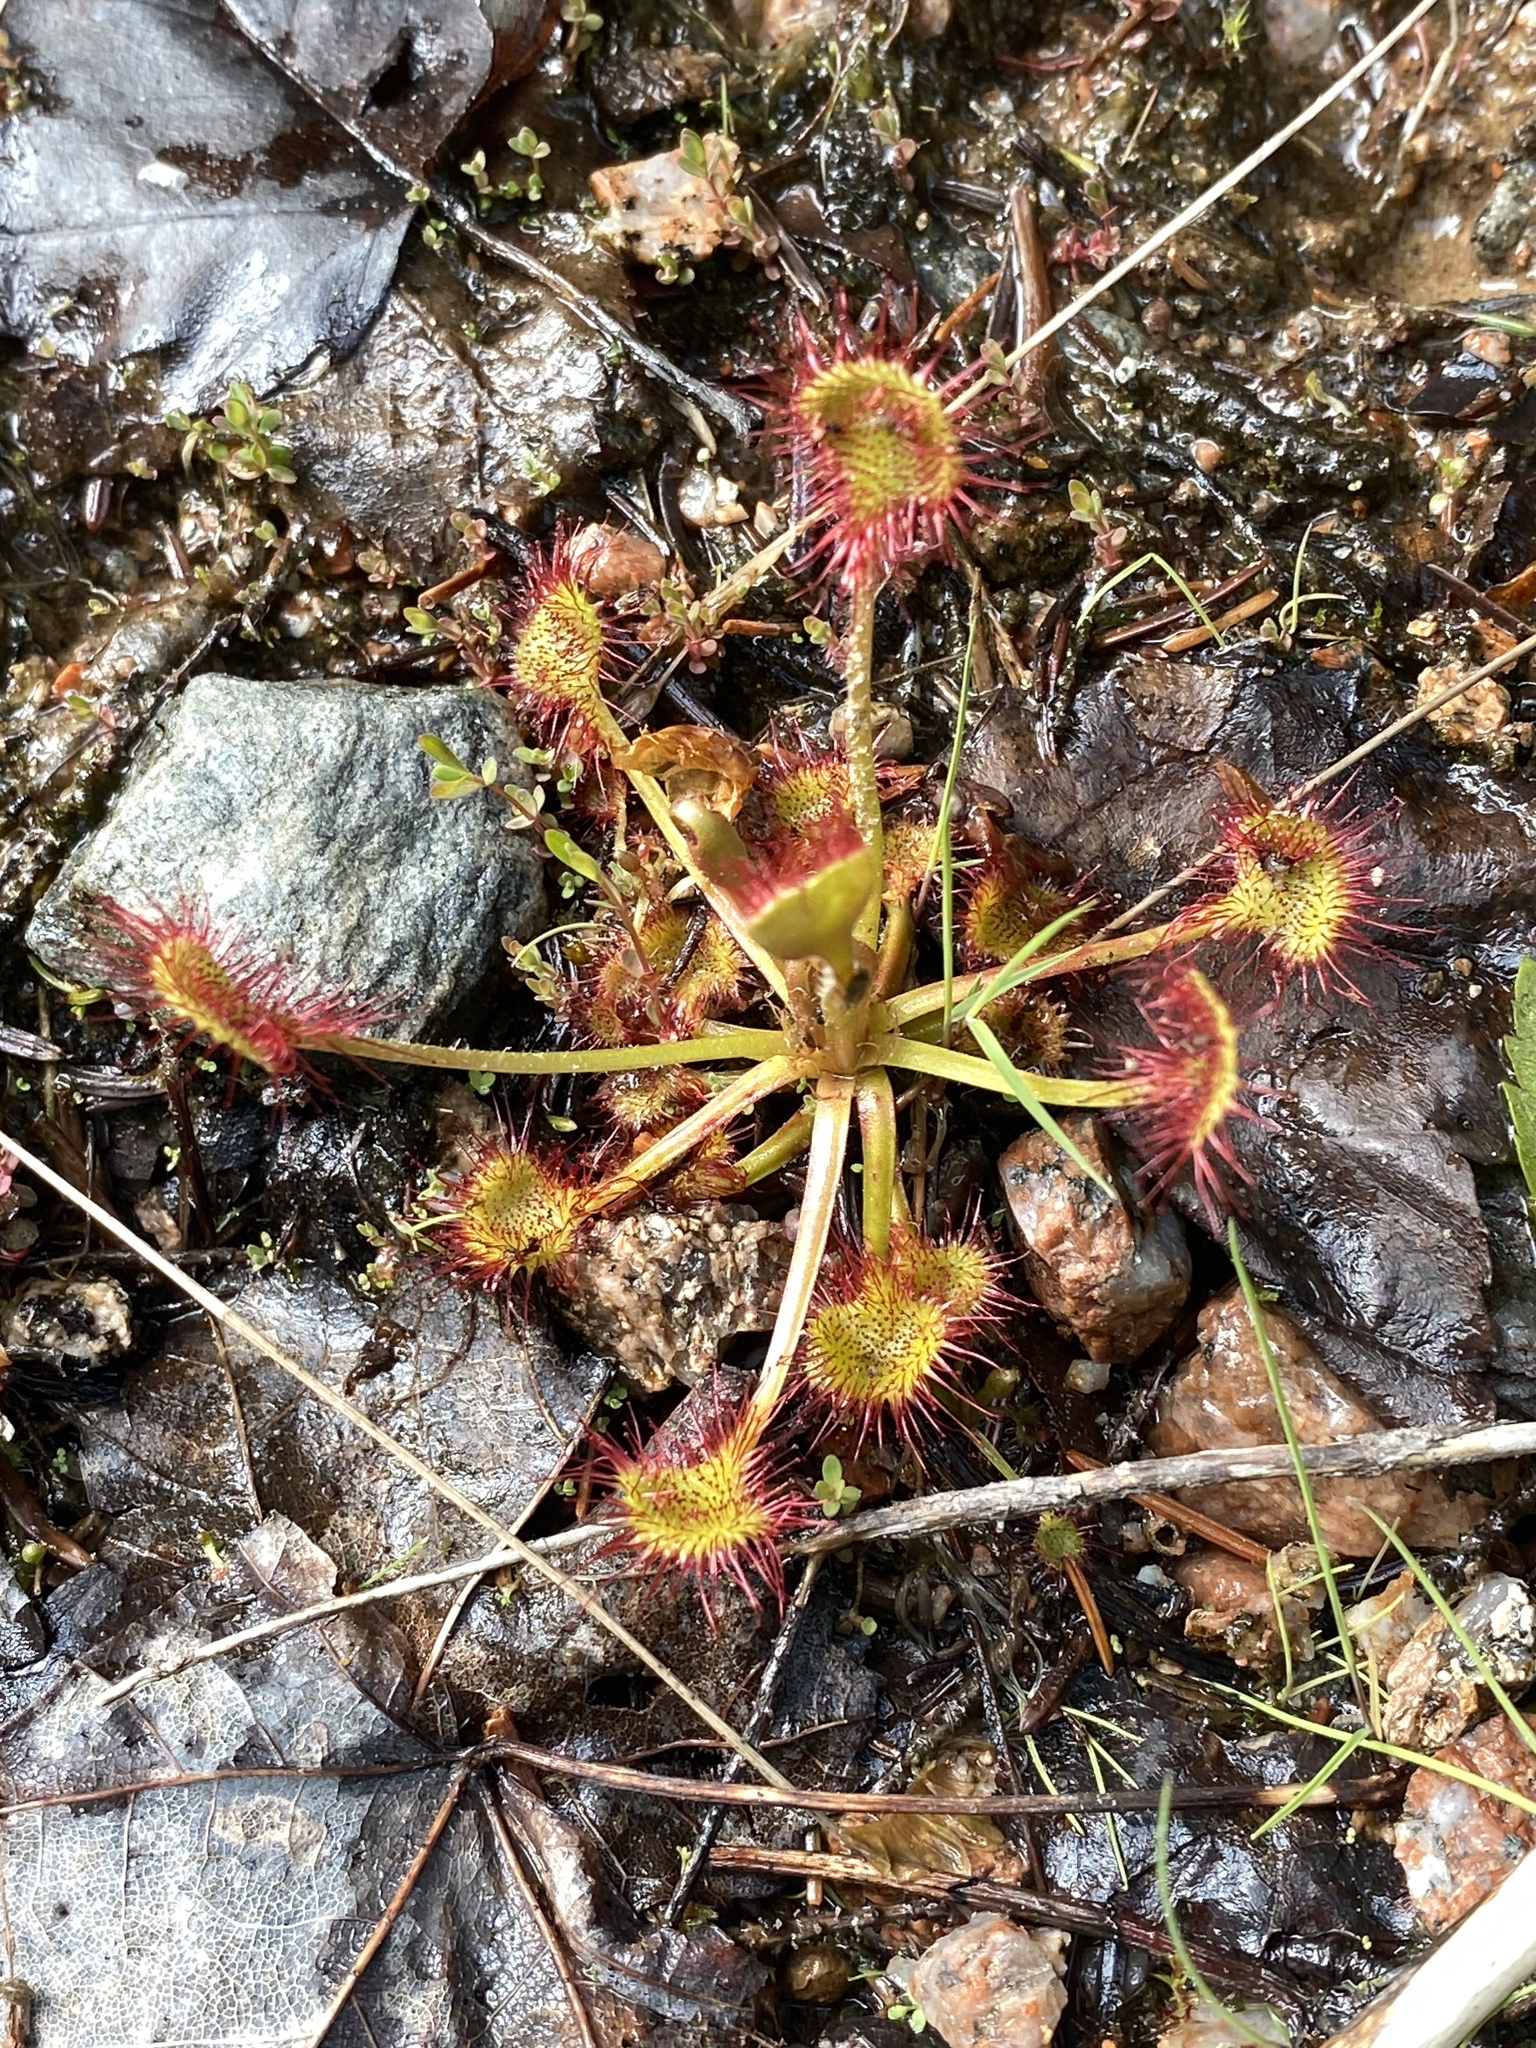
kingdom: Plantae
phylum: Tracheophyta
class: Magnoliopsida
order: Caryophyllales
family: Droseraceae
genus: Drosera
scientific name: Drosera rotundifolia
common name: Round-leaved sundew
